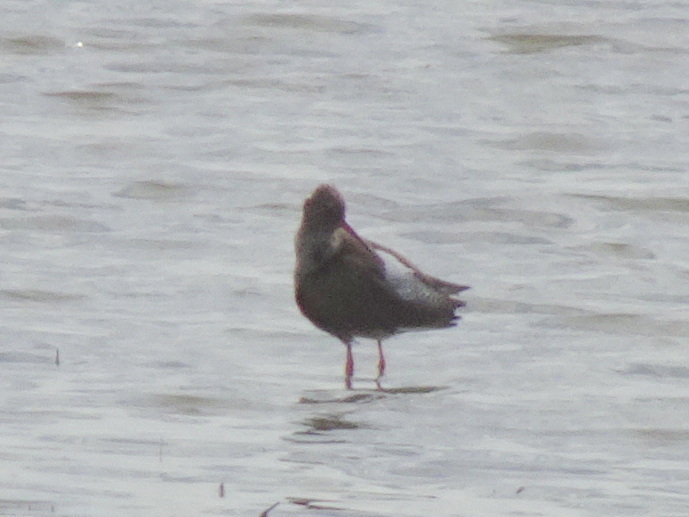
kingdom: Animalia
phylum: Chordata
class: Aves
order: Charadriiformes
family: Scolopacidae
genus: Tringa
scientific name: Tringa totanus
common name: Common redshank
